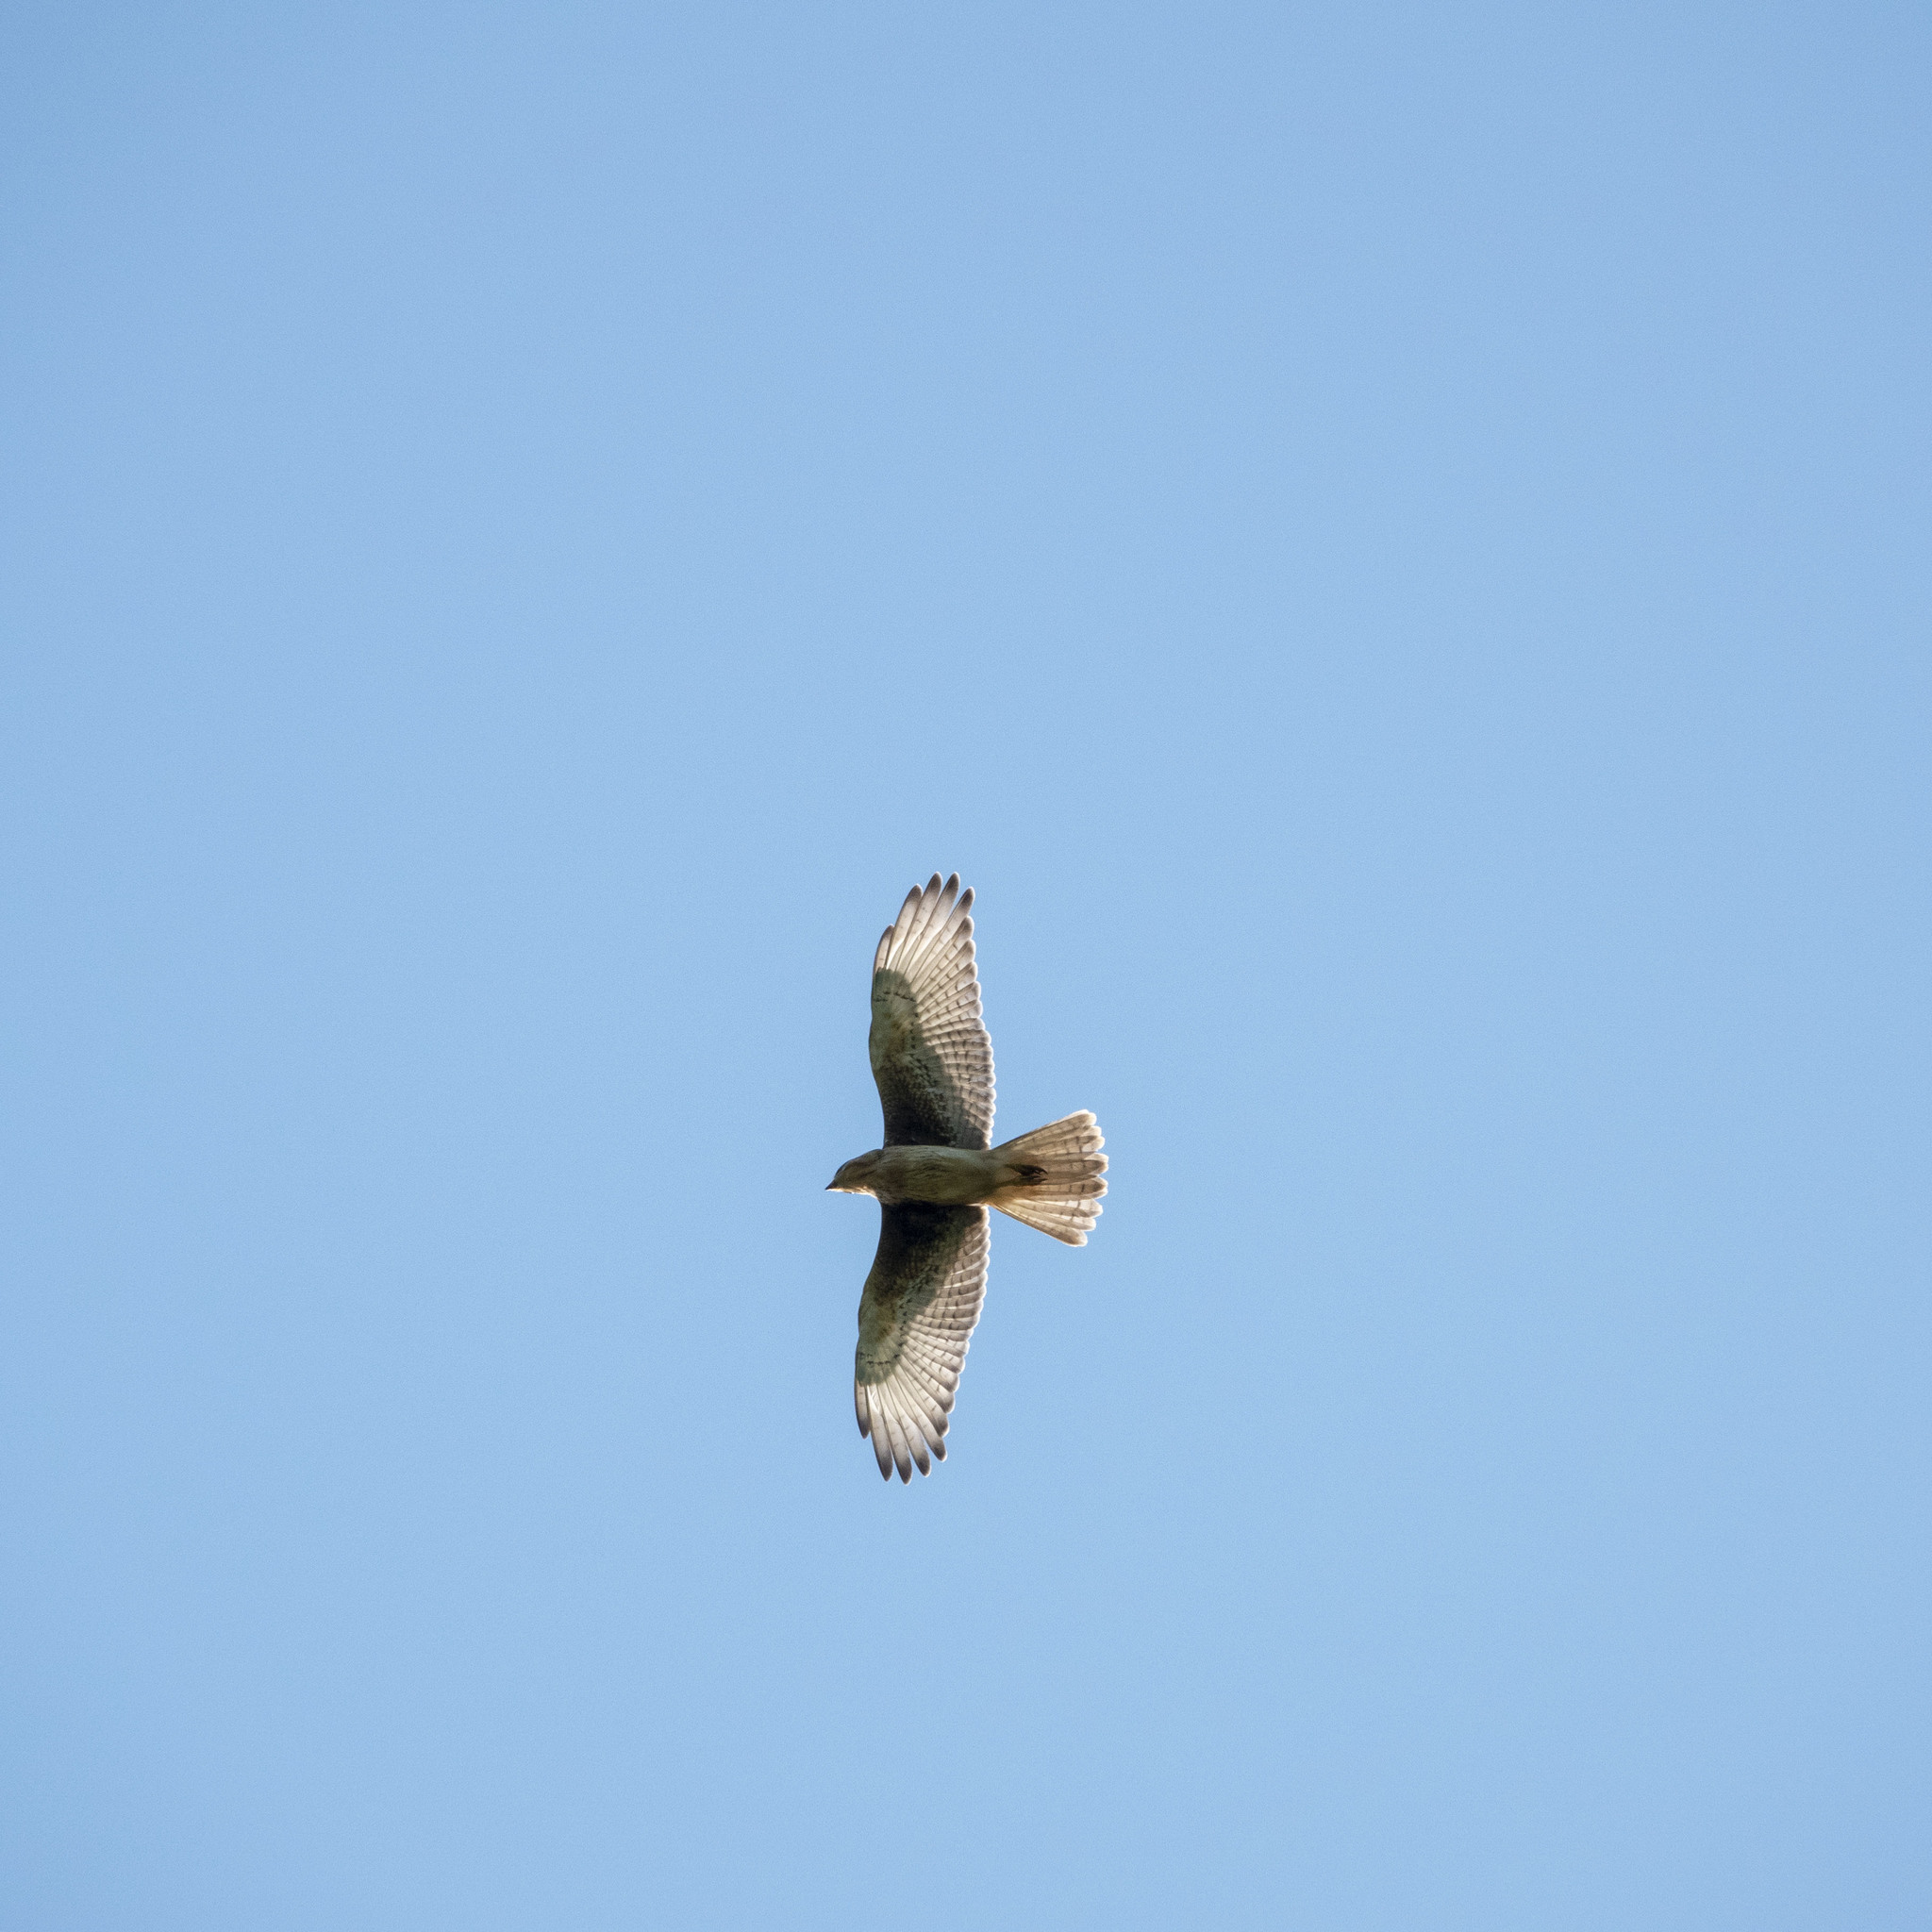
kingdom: Animalia
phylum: Chordata
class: Aves
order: Accipitriformes
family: Accipitridae
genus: Butastur
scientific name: Butastur teesa
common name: White-eyed buzzard
